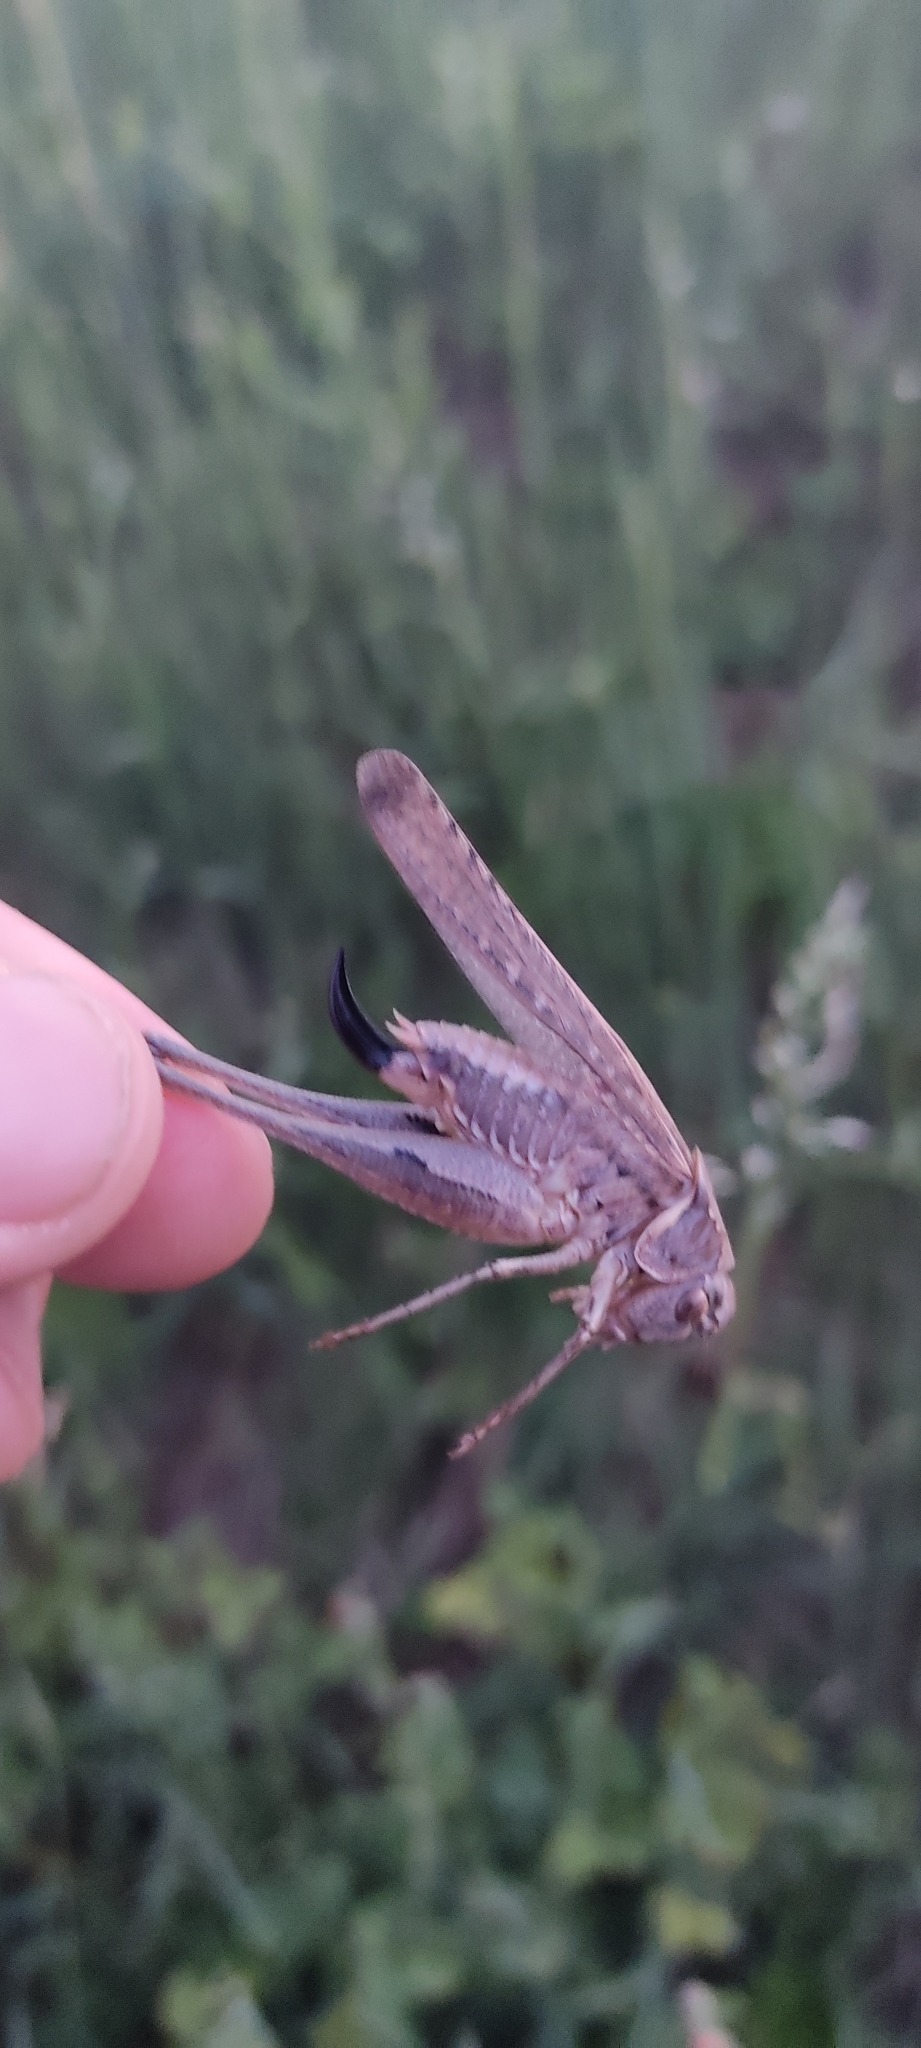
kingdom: Animalia
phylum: Arthropoda
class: Insecta
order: Orthoptera
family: Tettigoniidae
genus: Platycleis
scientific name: Platycleis falx
